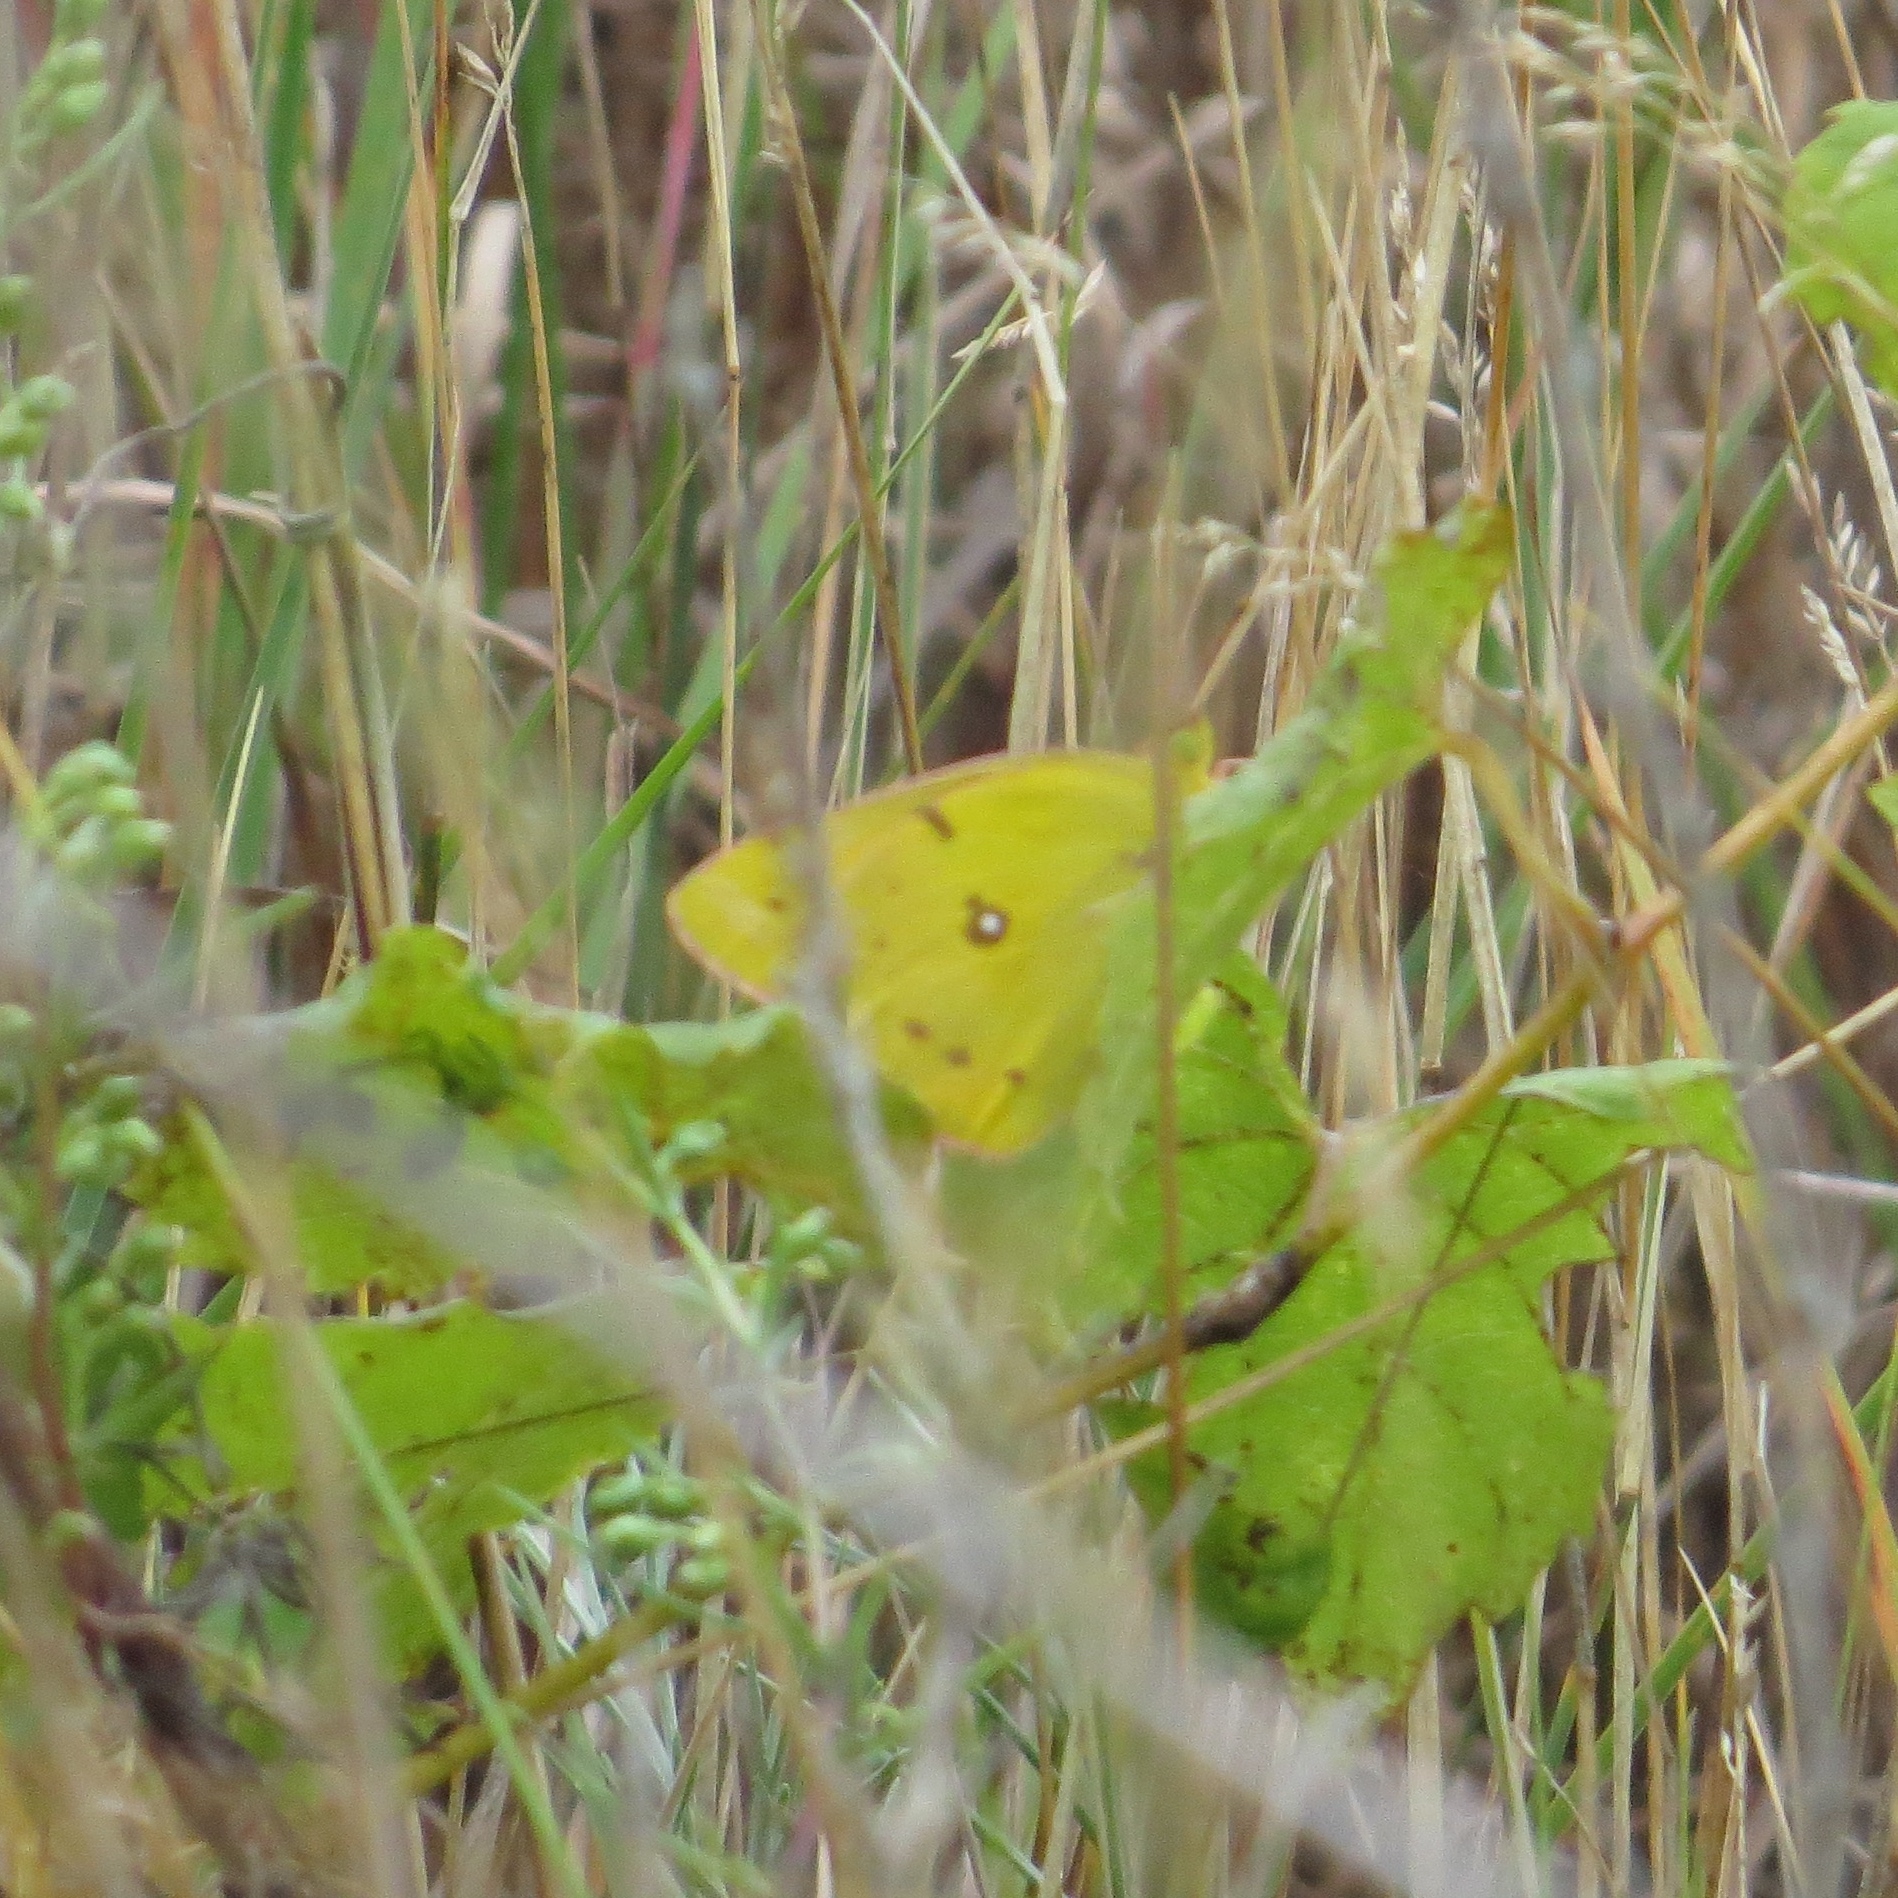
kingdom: Animalia
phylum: Arthropoda
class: Insecta
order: Lepidoptera
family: Pieridae
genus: Colias
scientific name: Colias eurytheme
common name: Alfalfa butterfly
